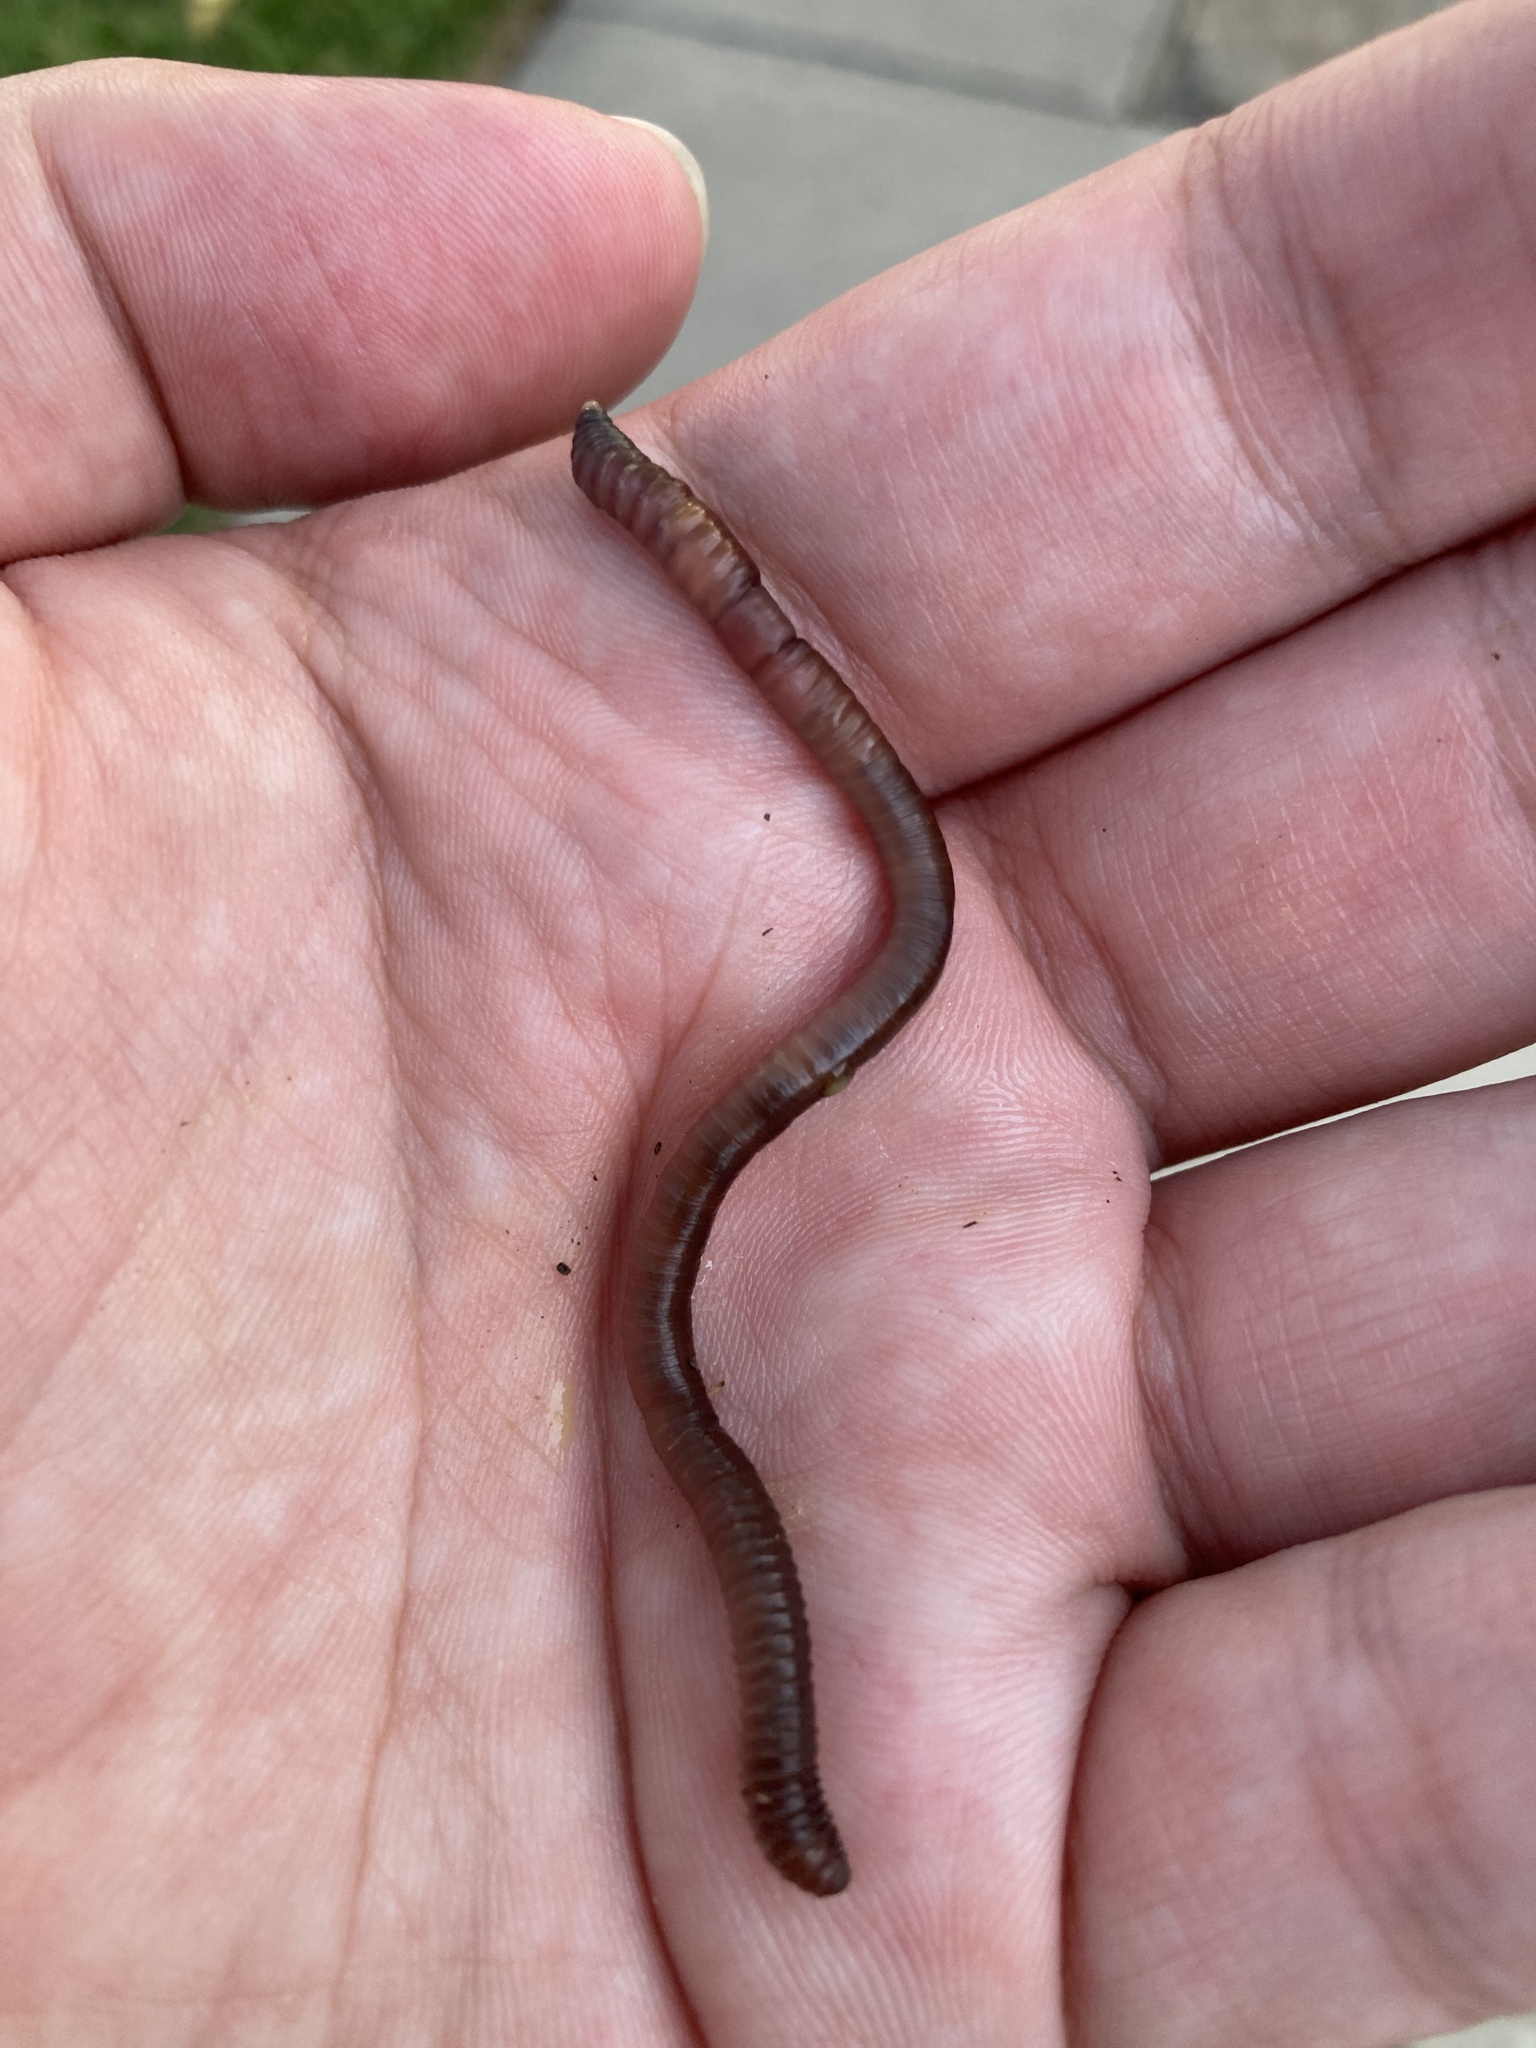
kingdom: Animalia
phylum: Annelida
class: Clitellata
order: Crassiclitellata
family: Lumbricidae
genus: Lumbricus
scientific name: Lumbricus terrestris
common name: Common earthworm
